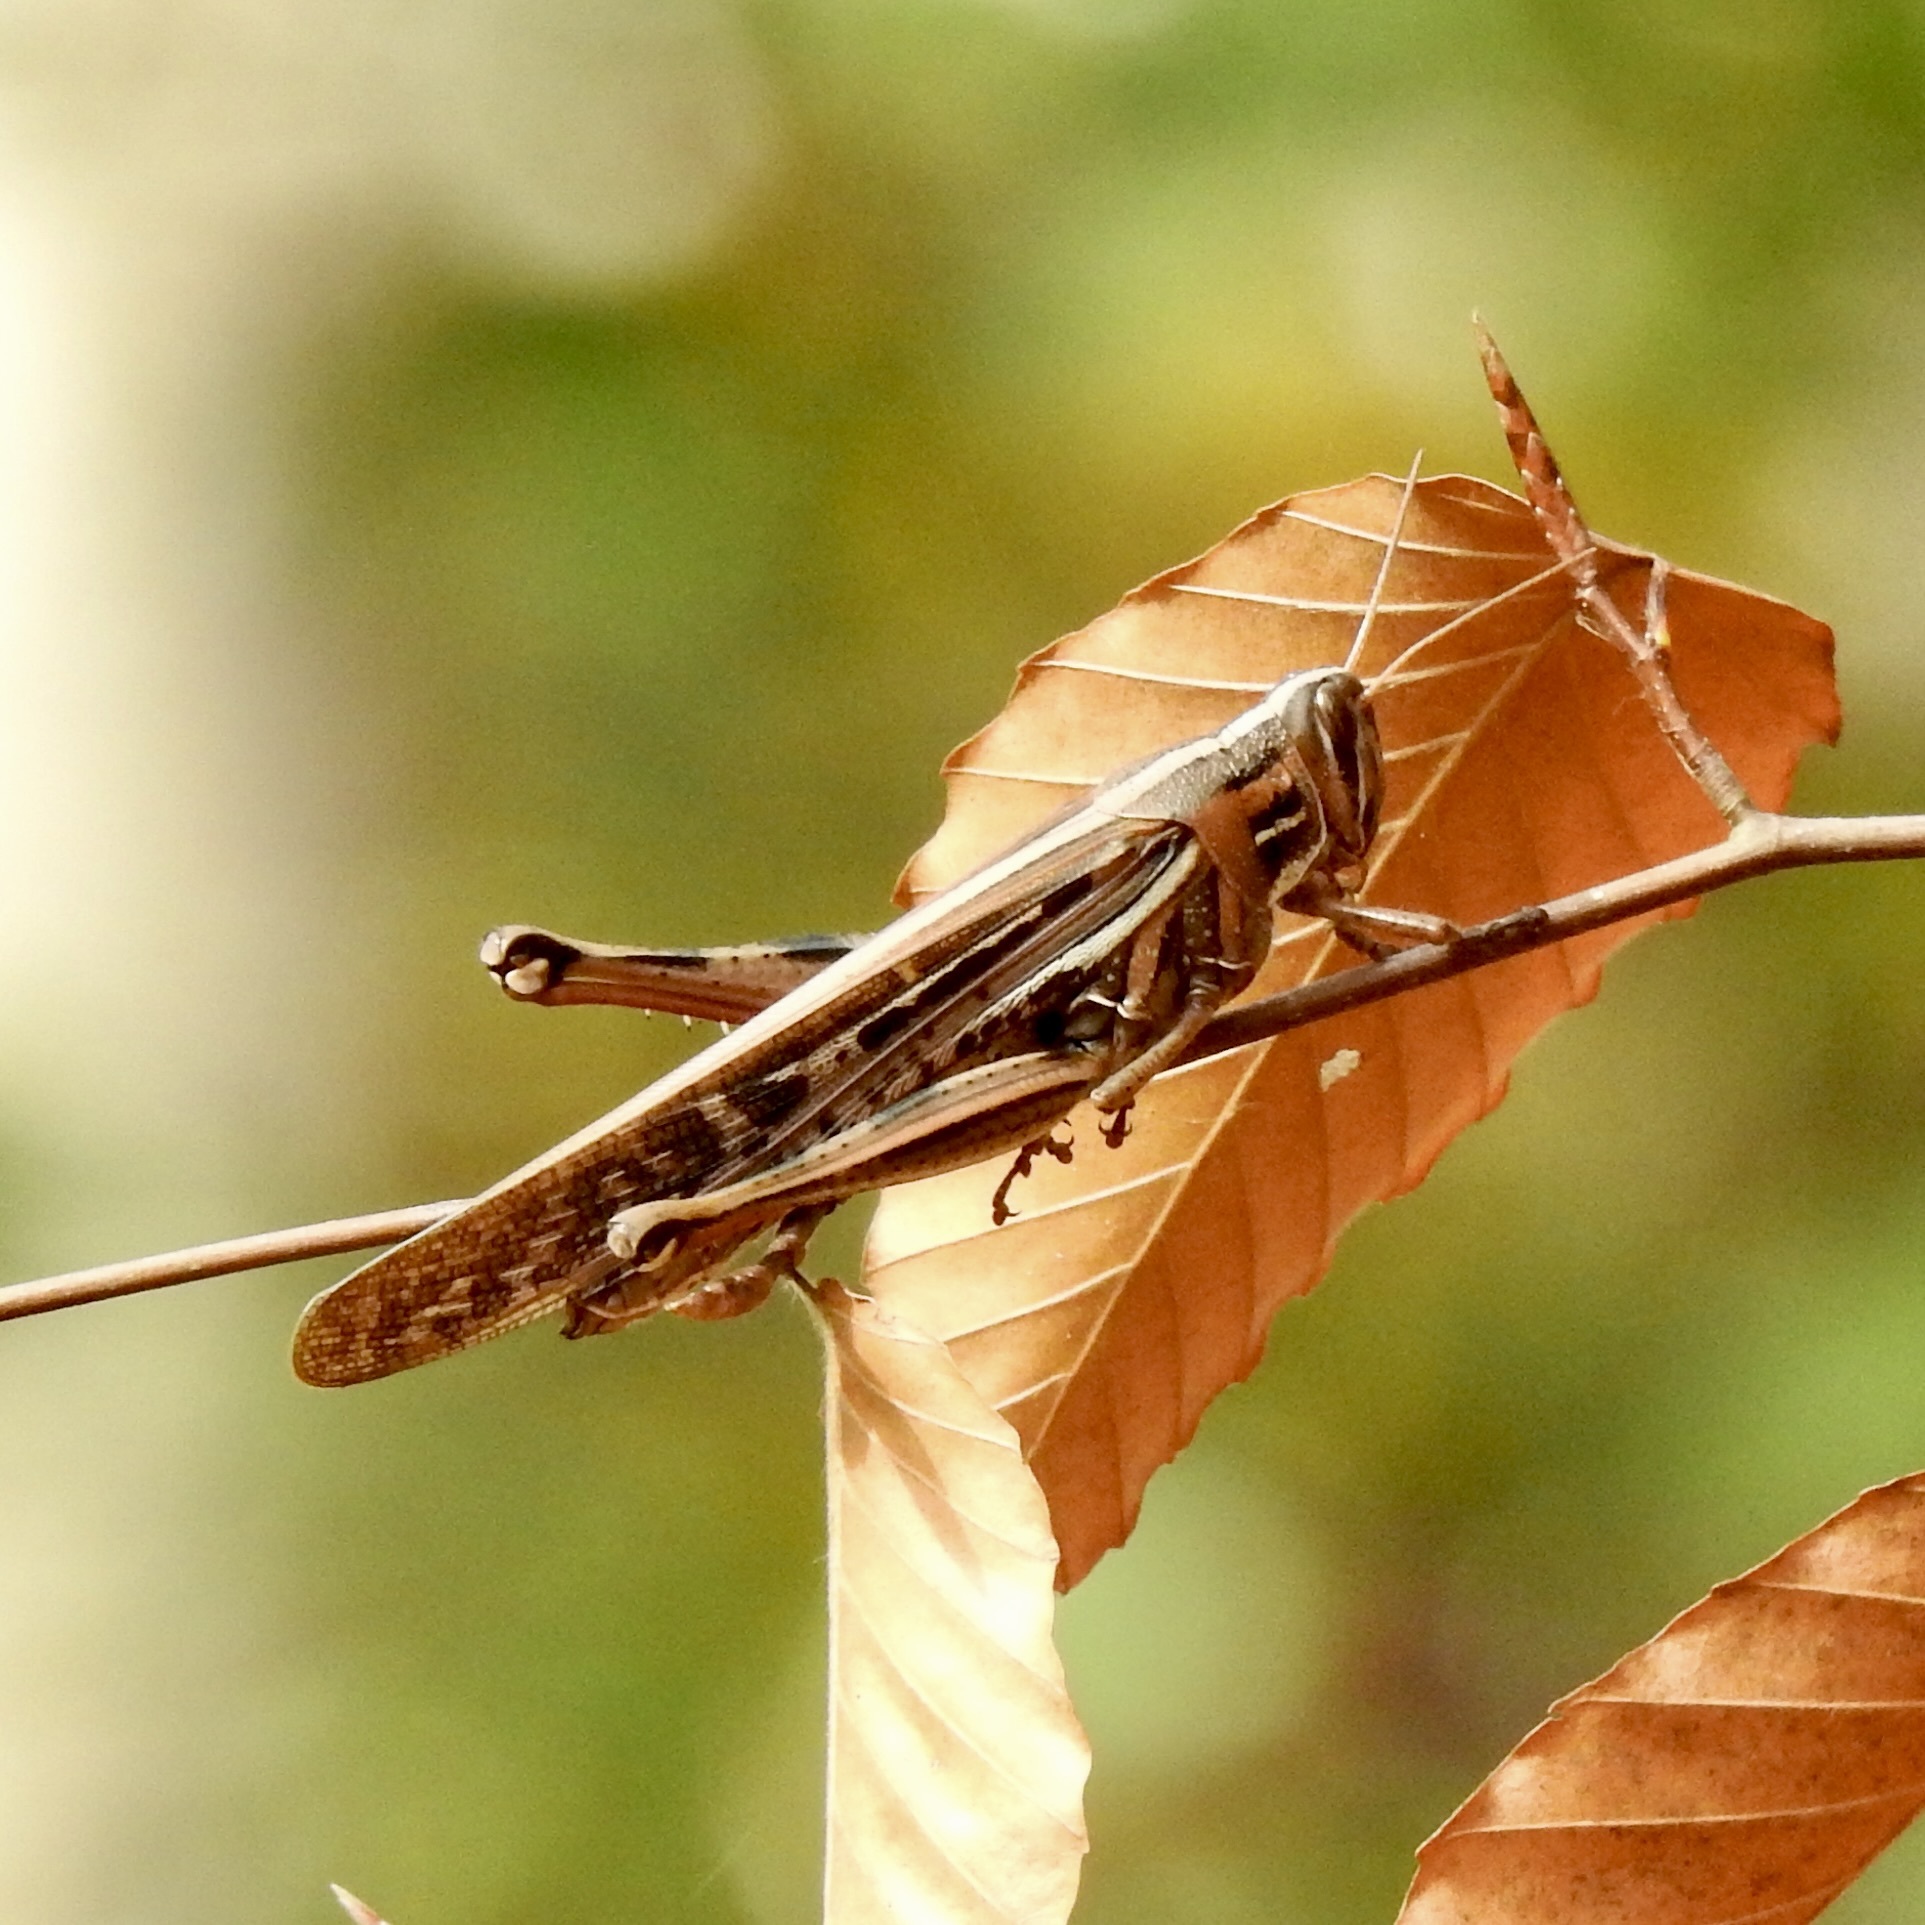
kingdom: Animalia
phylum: Arthropoda
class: Insecta
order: Orthoptera
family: Acrididae
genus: Schistocerca
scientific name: Schistocerca americana
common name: American bird locust
